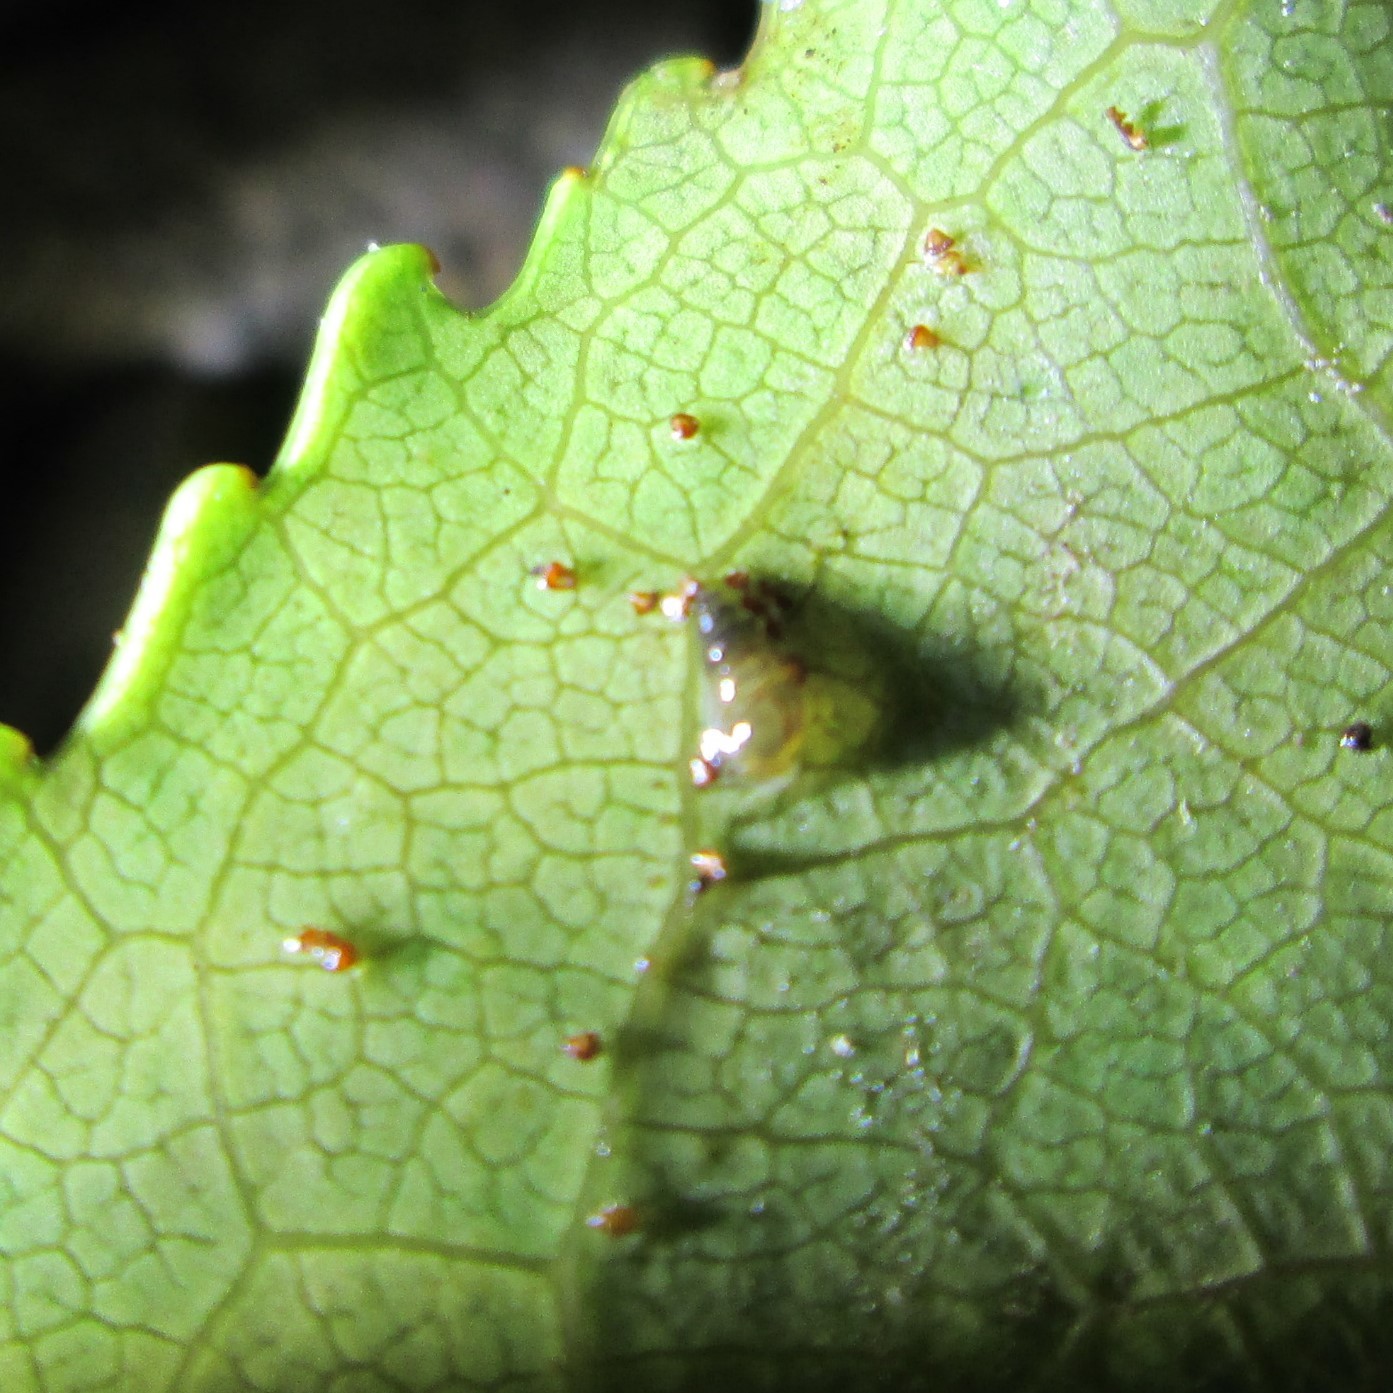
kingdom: Animalia
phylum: Mollusca
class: Gastropoda
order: Littorinimorpha
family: Tateidae
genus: Potamopyrgus
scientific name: Potamopyrgus oppidanus
